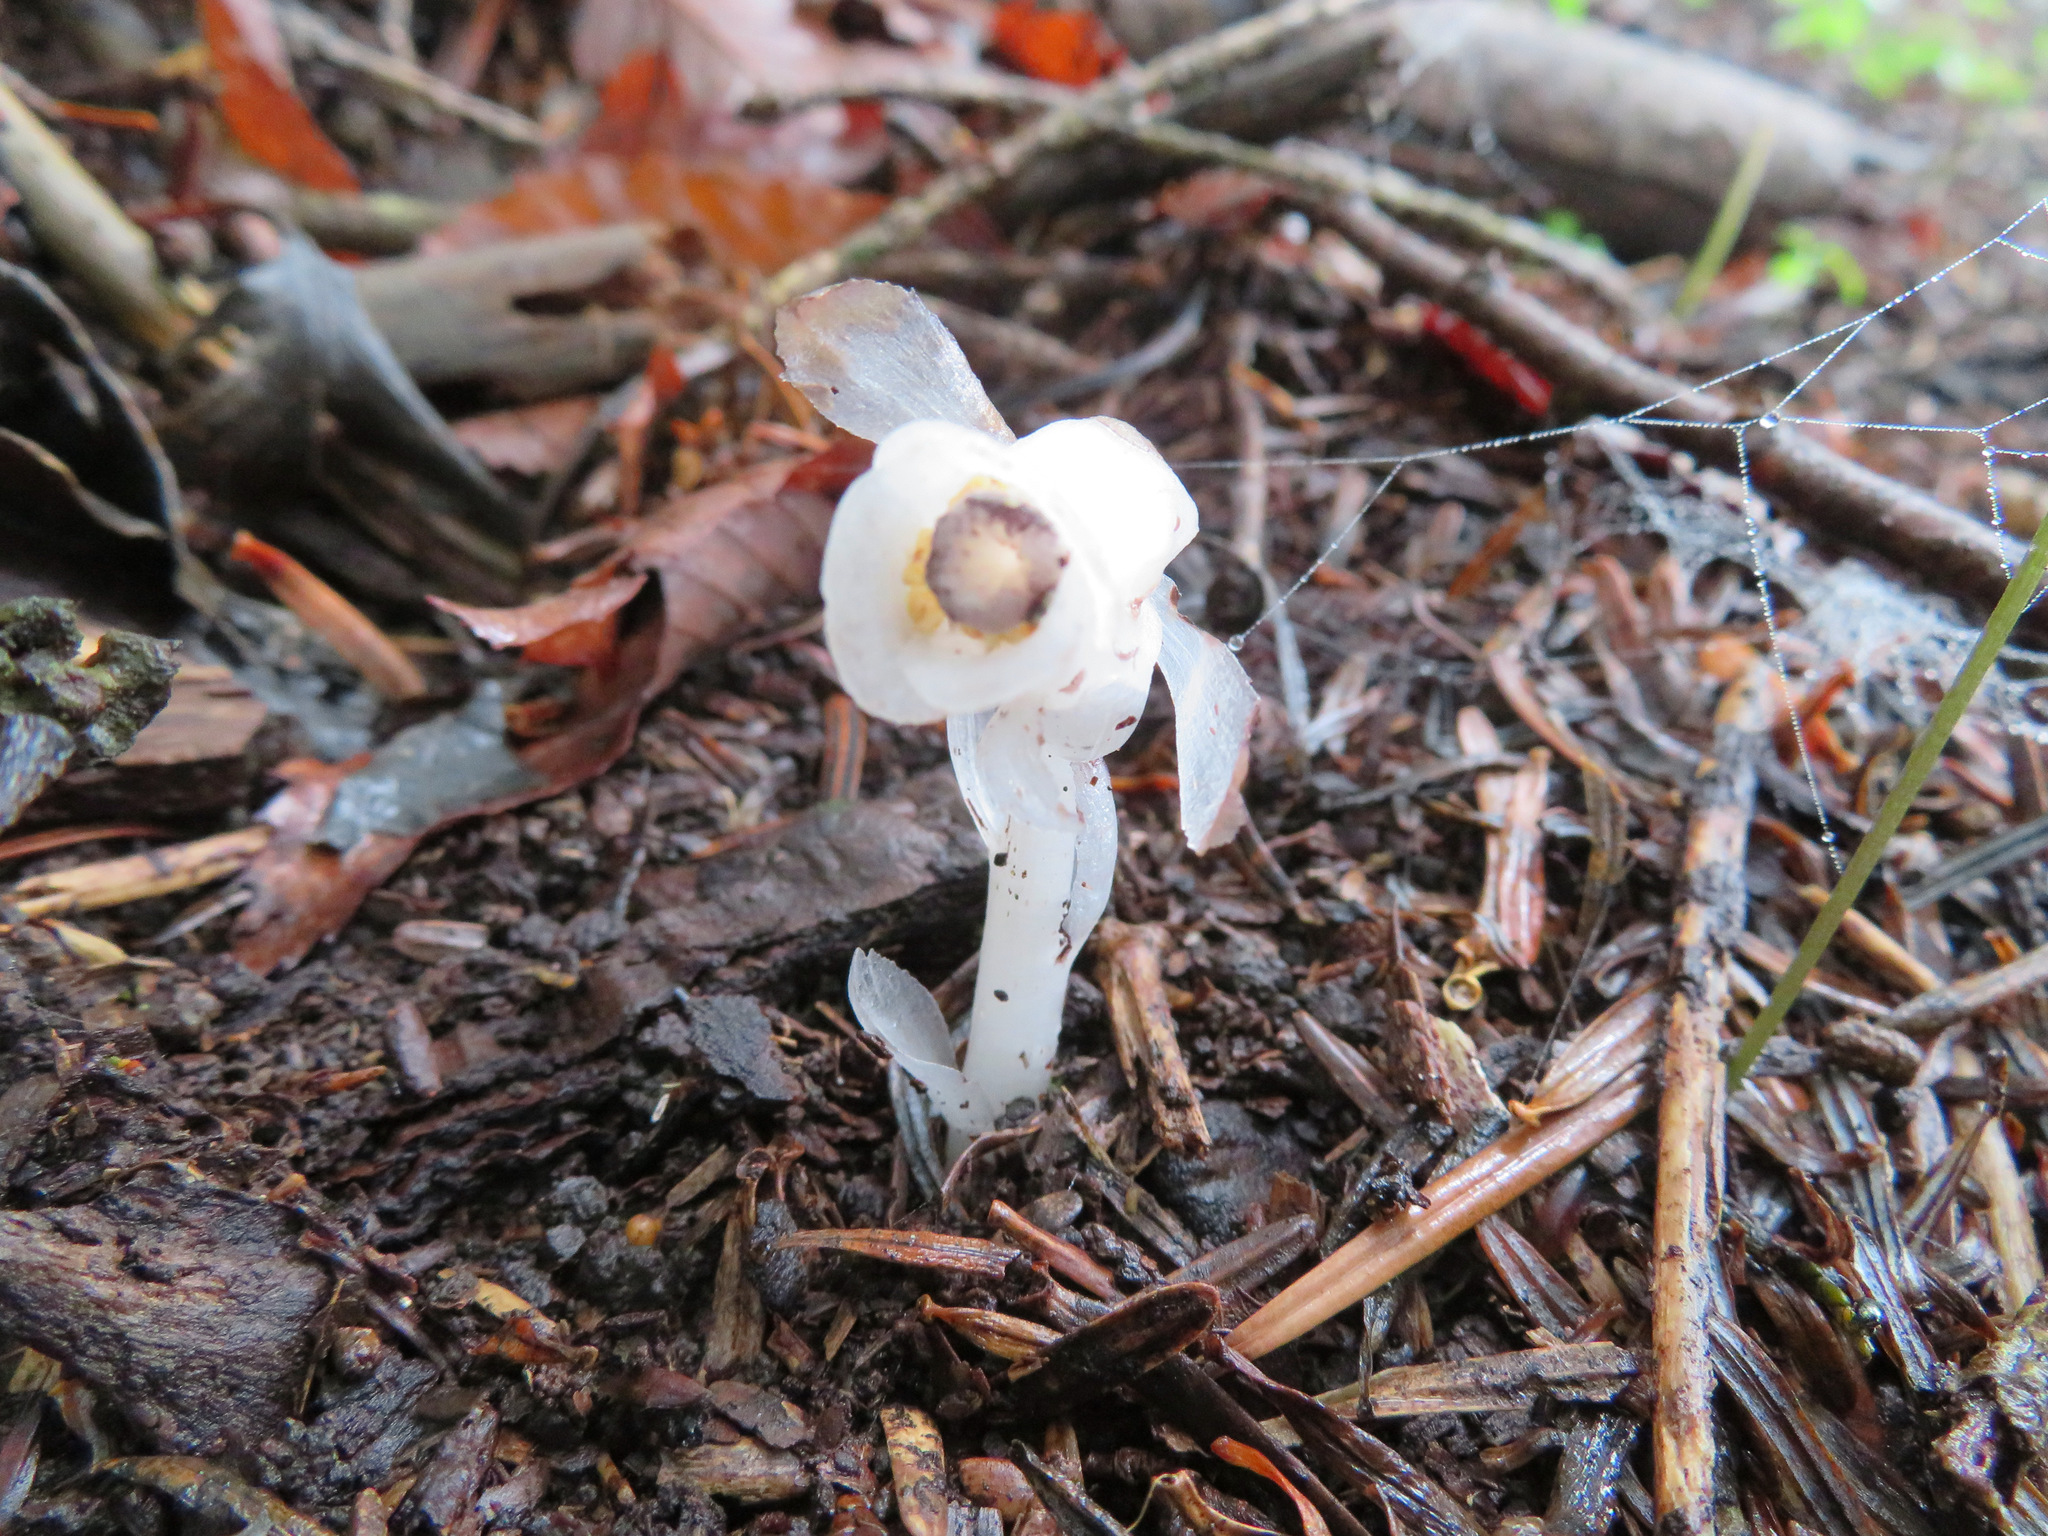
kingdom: Plantae
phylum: Tracheophyta
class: Magnoliopsida
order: Ericales
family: Ericaceae
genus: Monotropastrum
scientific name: Monotropastrum humile
